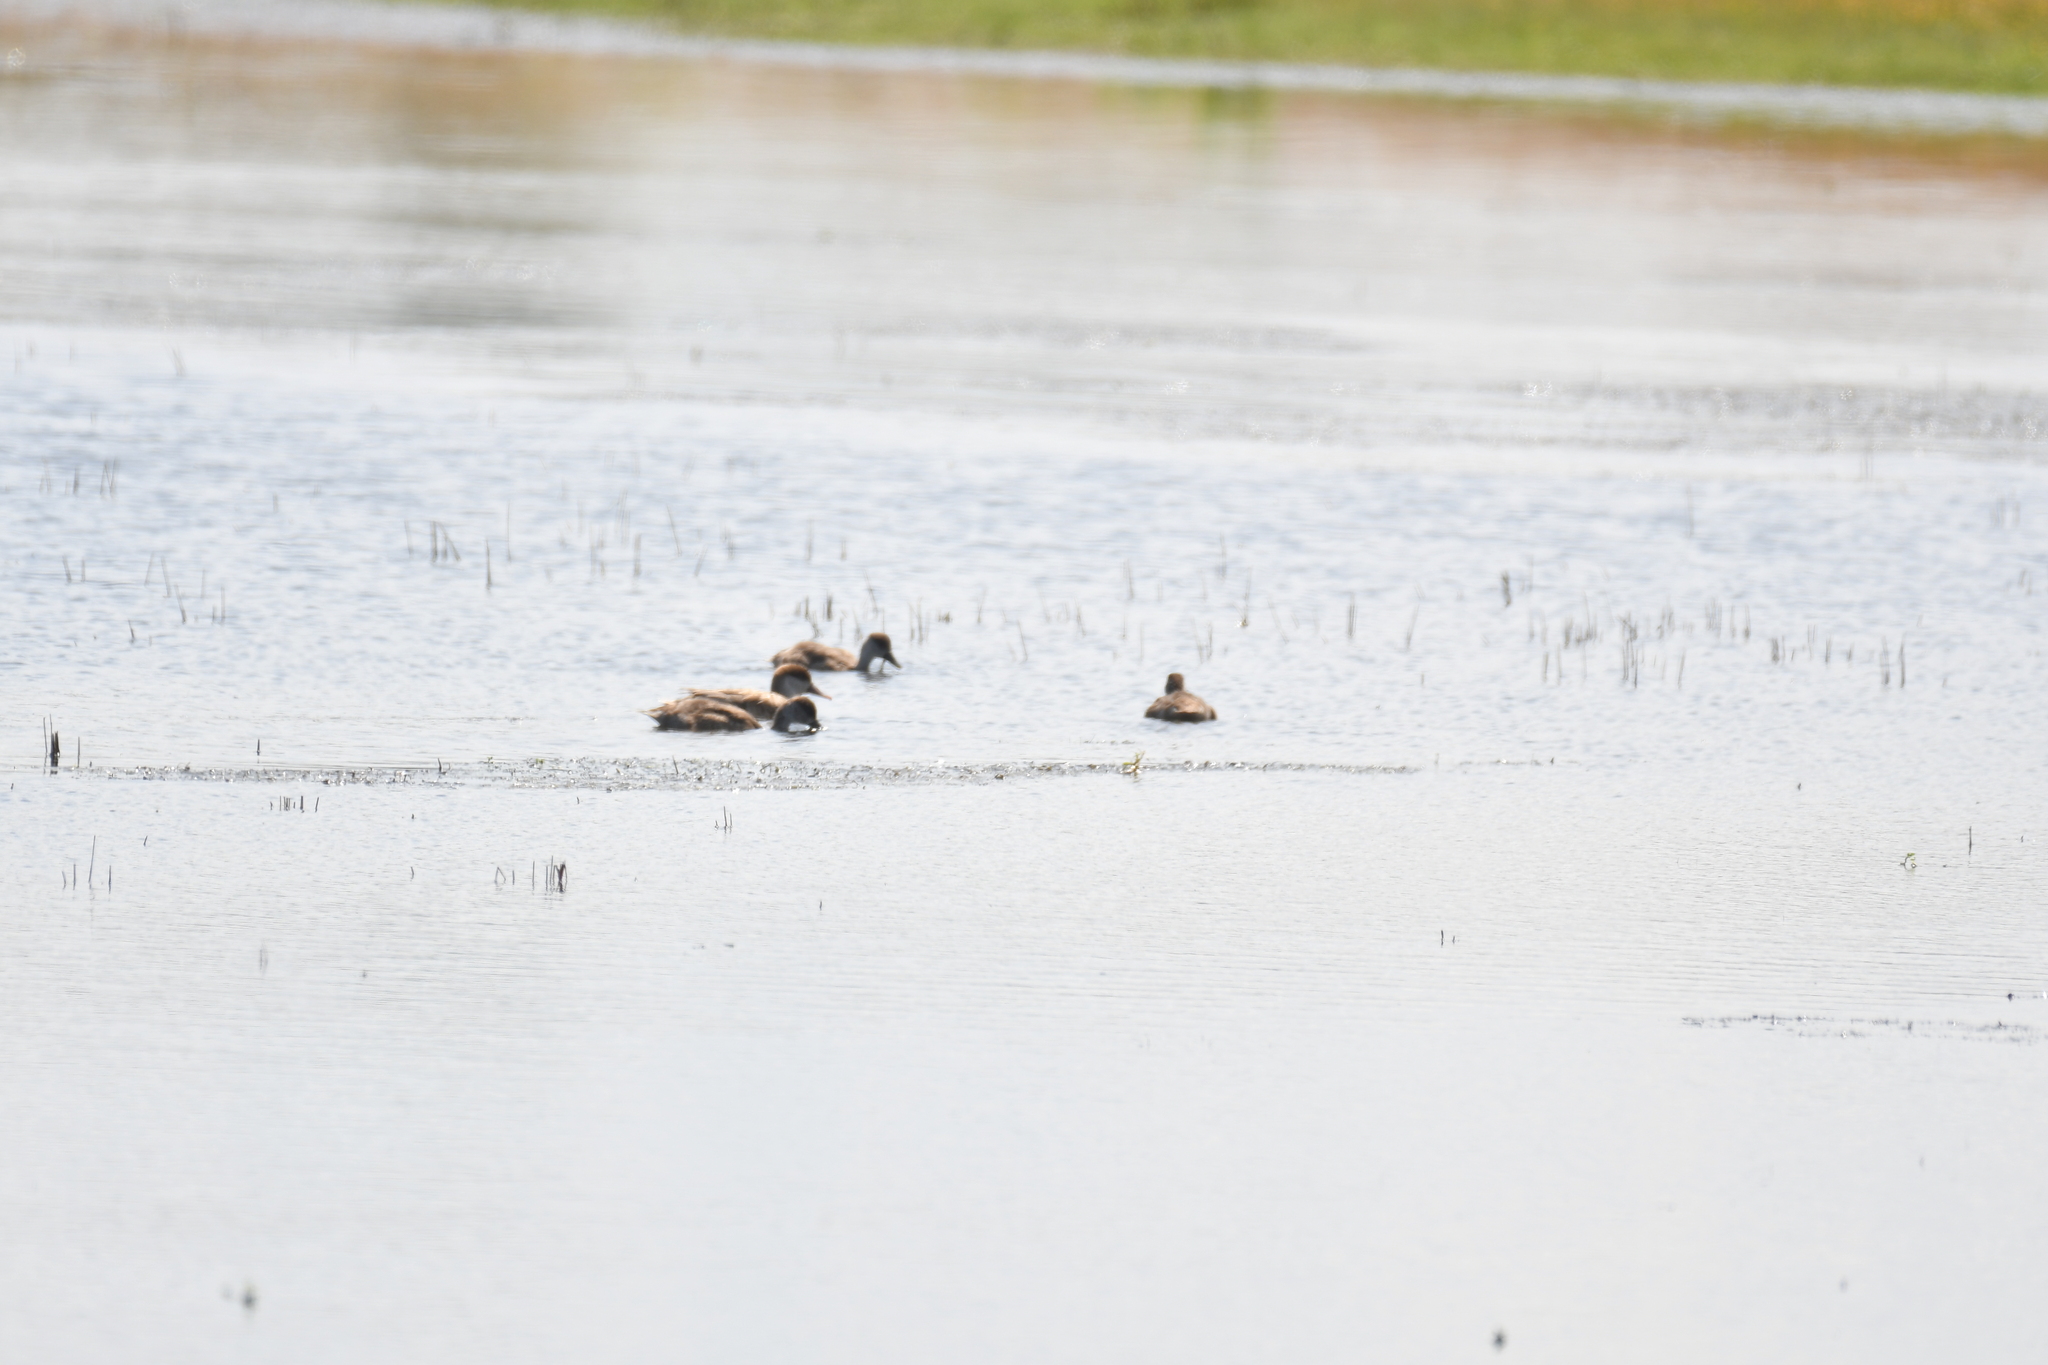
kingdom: Animalia
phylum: Chordata
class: Aves
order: Anseriformes
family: Anatidae
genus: Netta
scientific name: Netta rufina
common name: Red-crested pochard
